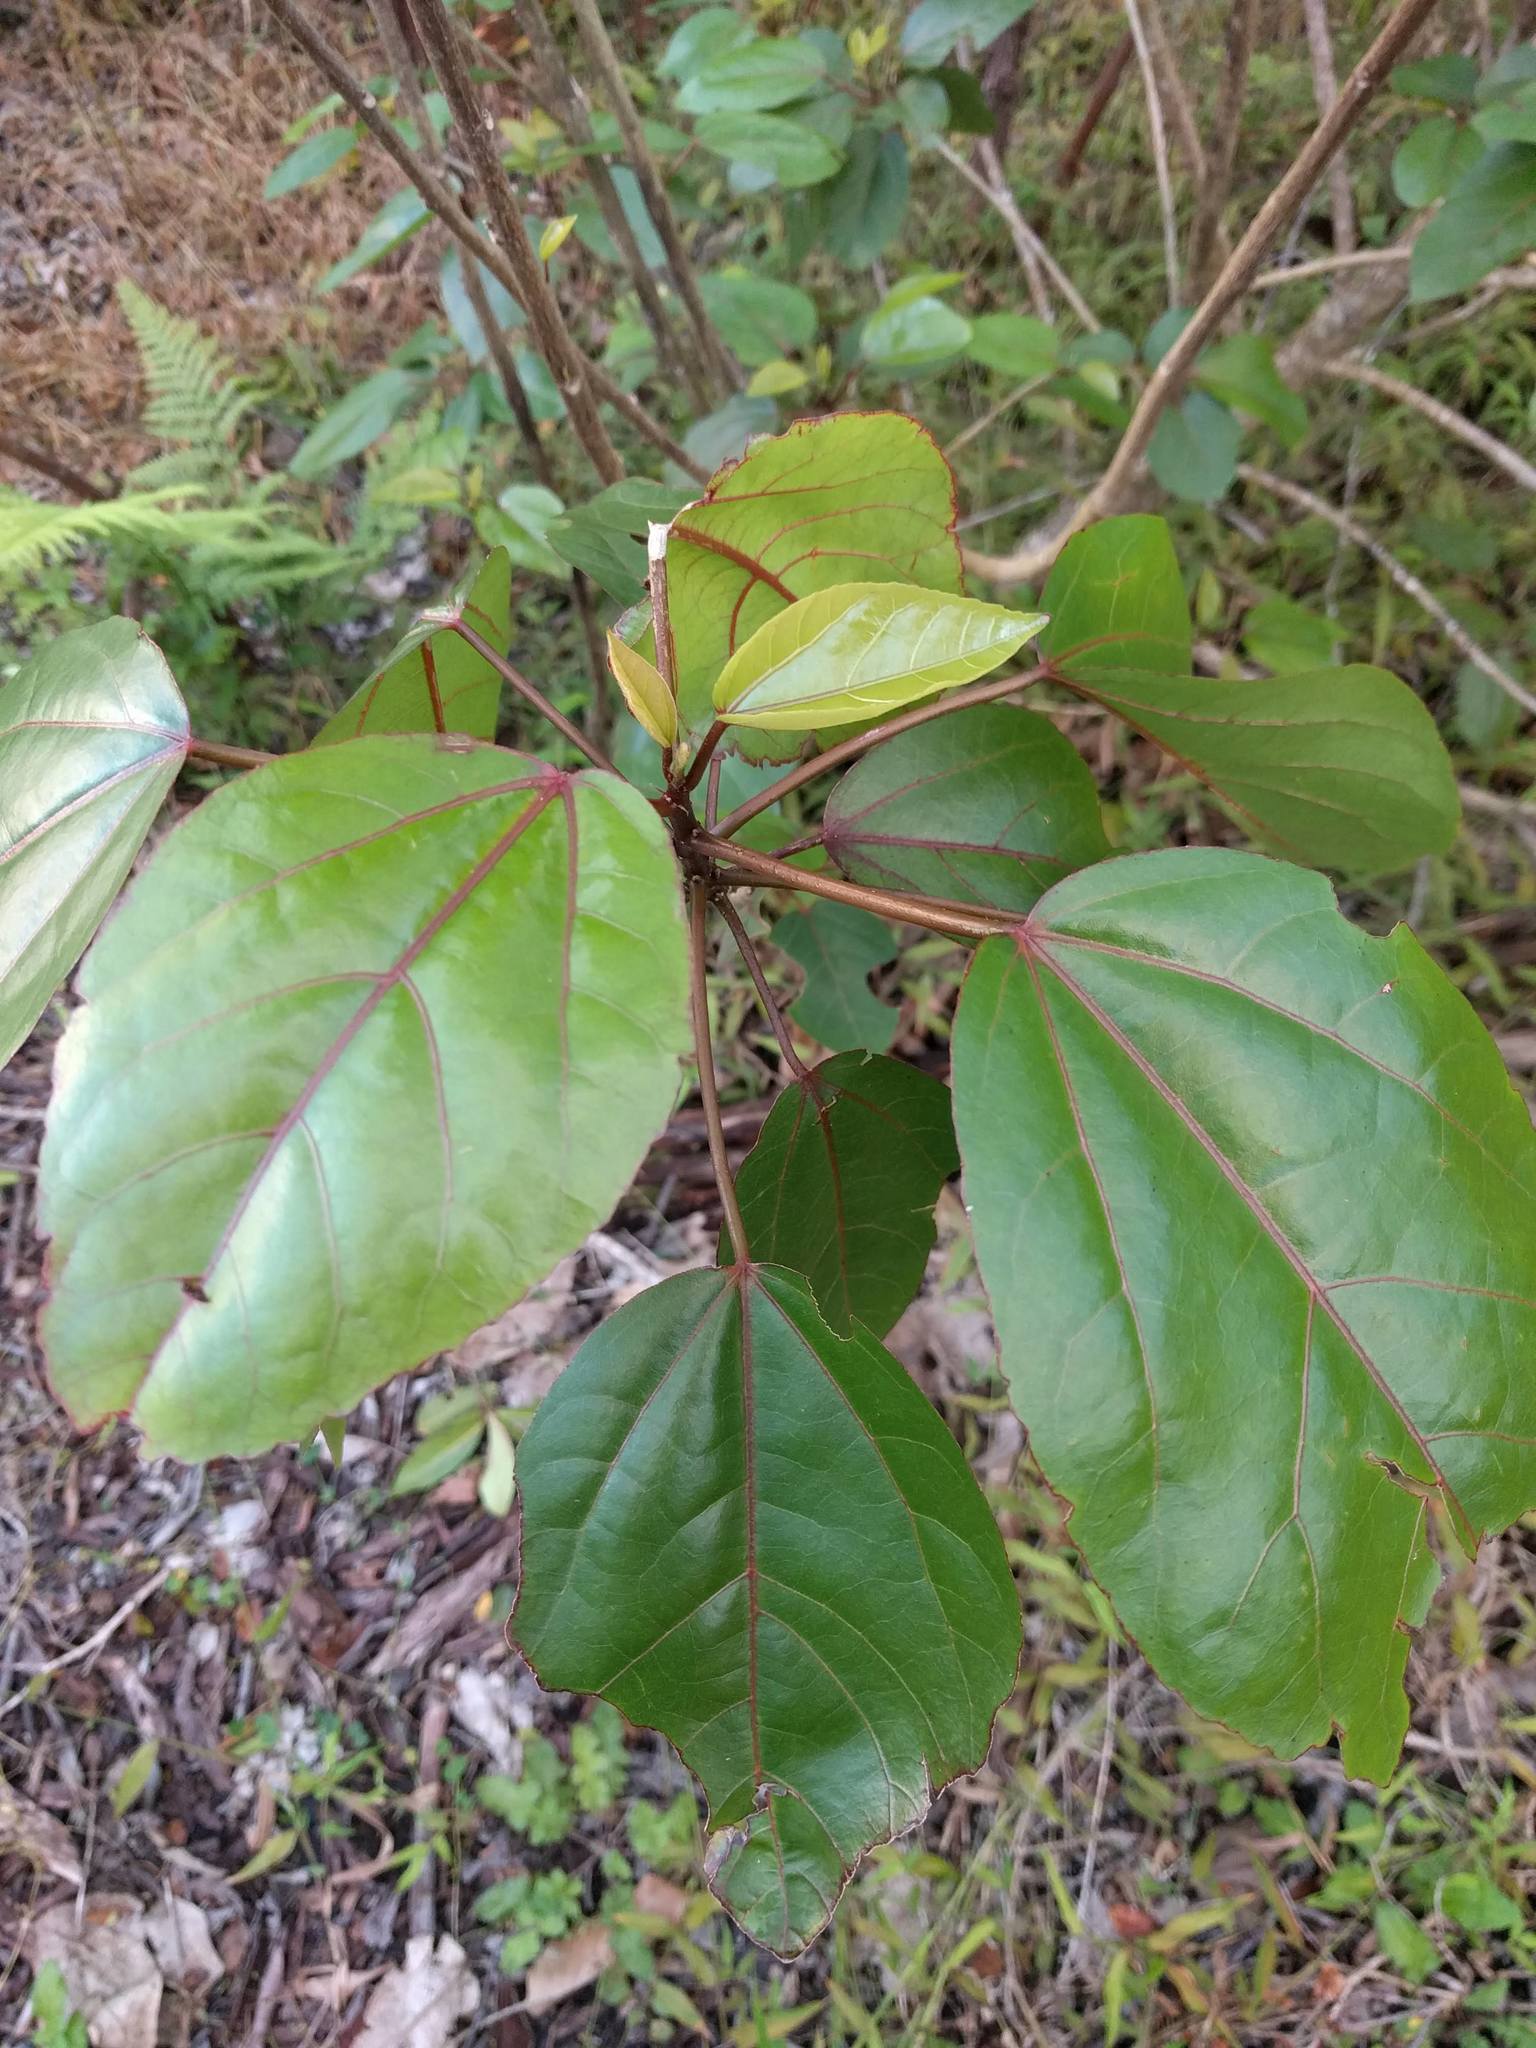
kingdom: Plantae
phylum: Tracheophyta
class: Magnoliopsida
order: Malvales
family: Malvaceae
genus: Hibiscus
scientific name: Hibiscus arnottianus
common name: White molokai hibiscus
